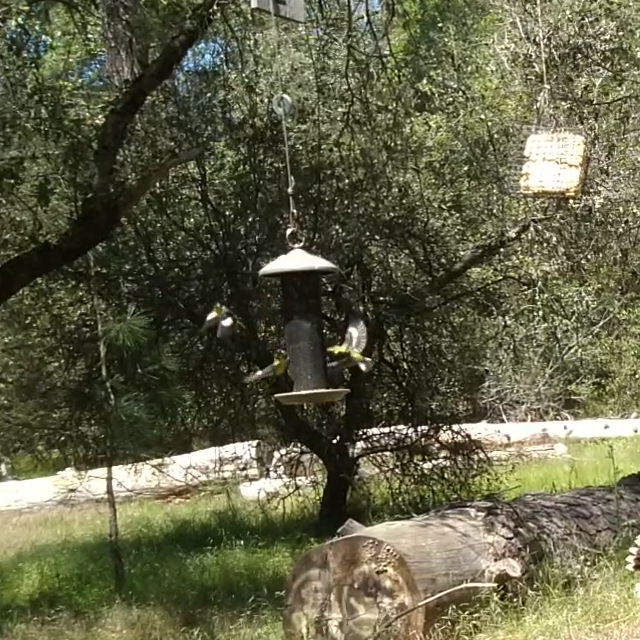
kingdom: Animalia
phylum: Chordata
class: Aves
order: Passeriformes
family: Fringillidae
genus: Spinus
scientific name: Spinus psaltria
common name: Lesser goldfinch
